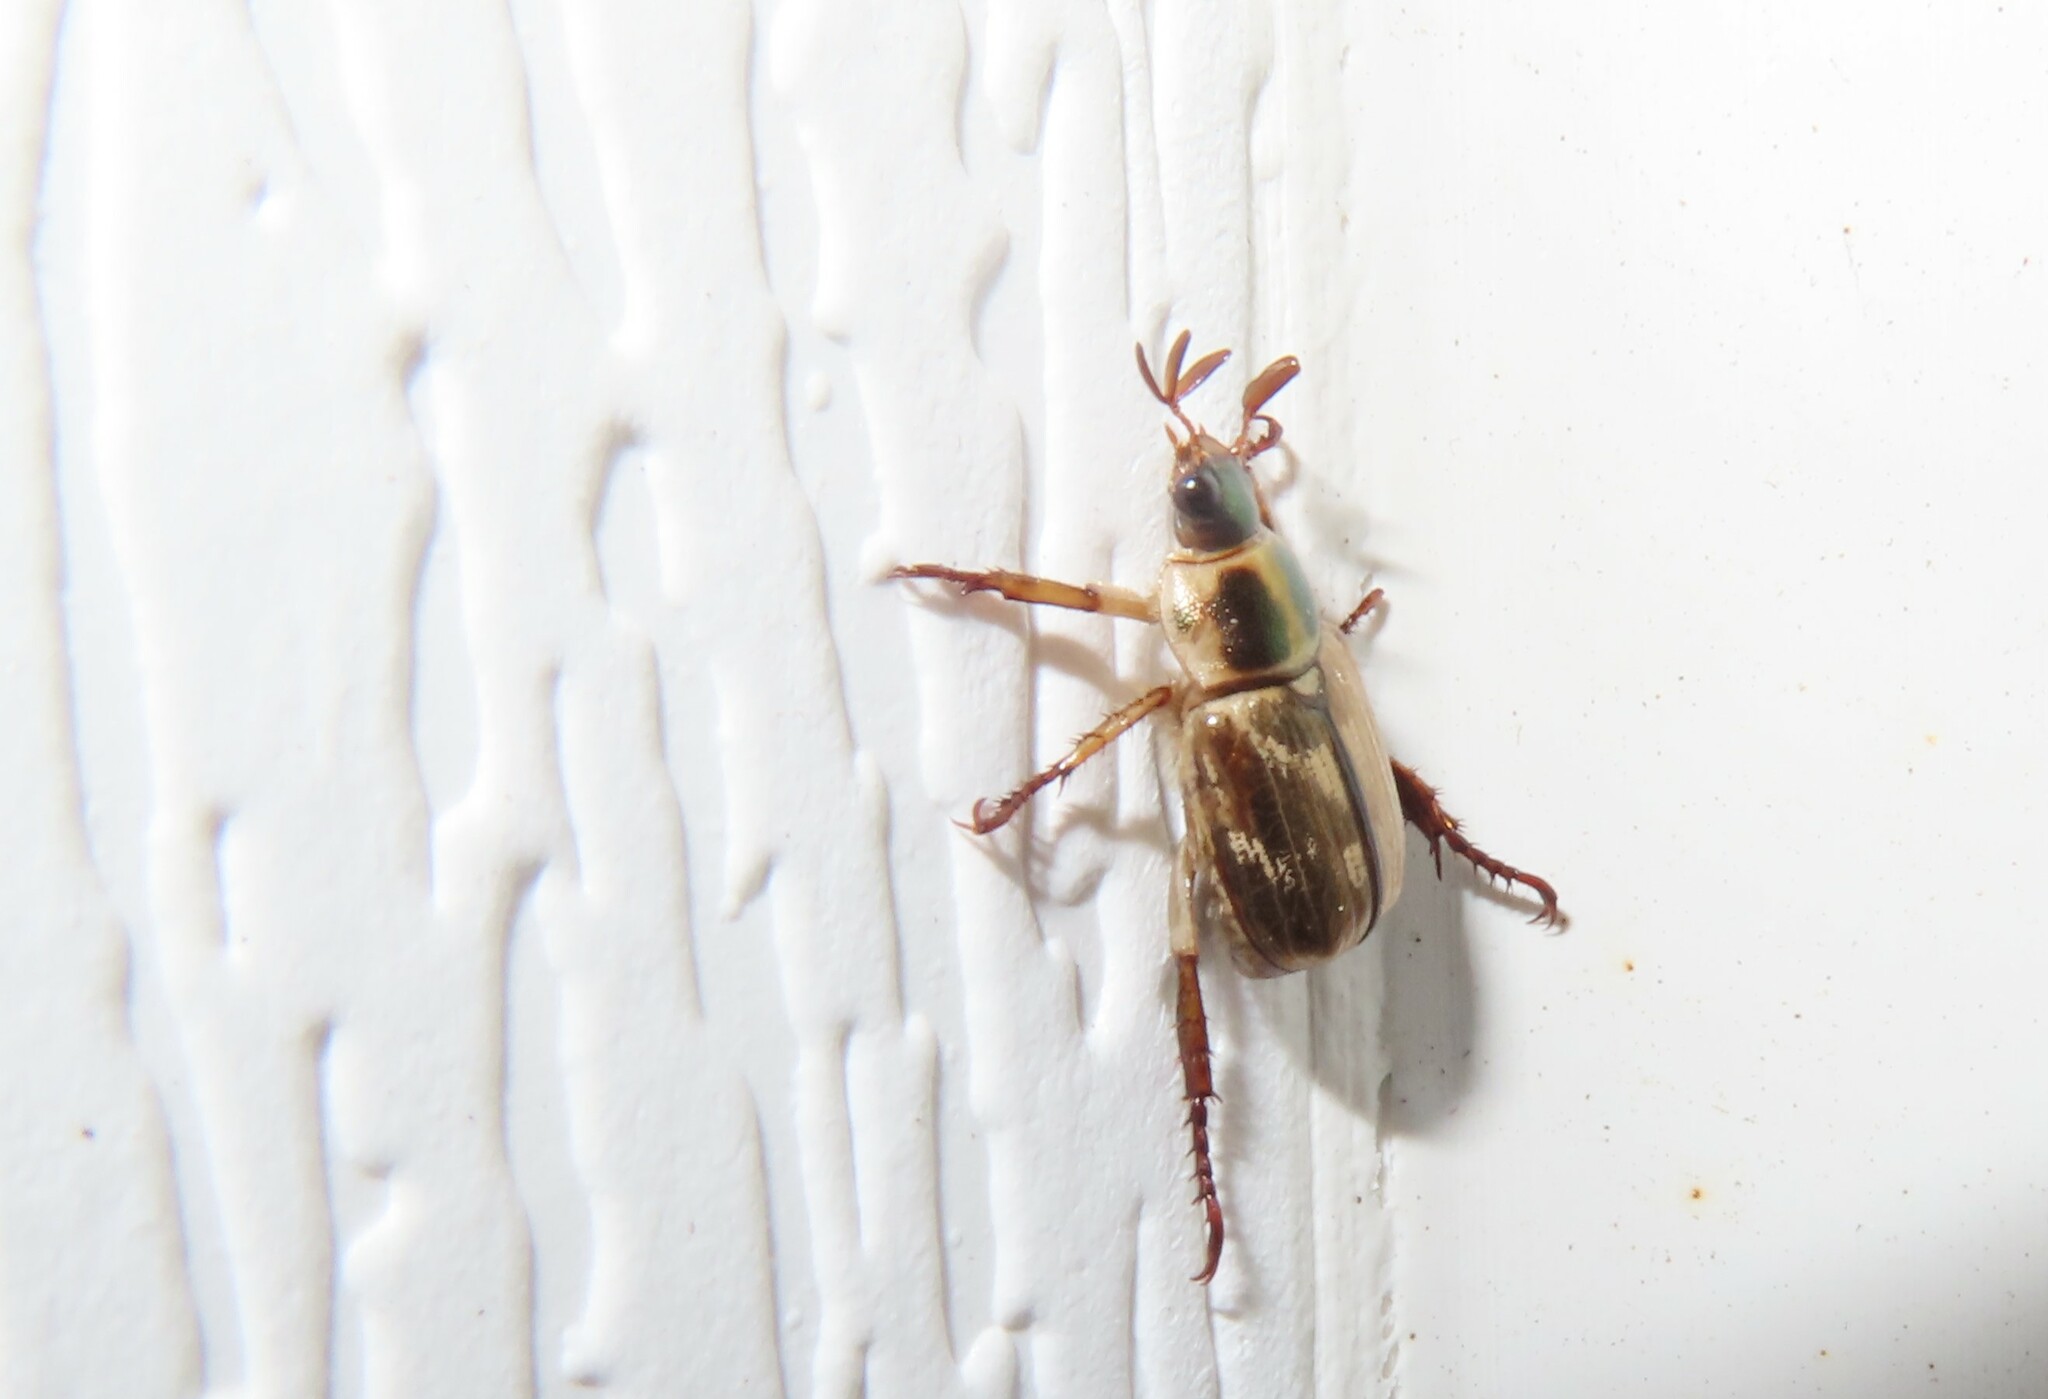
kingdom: Animalia
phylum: Arthropoda
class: Insecta
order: Coleoptera
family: Scarabaeidae
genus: Exomala
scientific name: Exomala orientalis
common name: Oriental beetle
